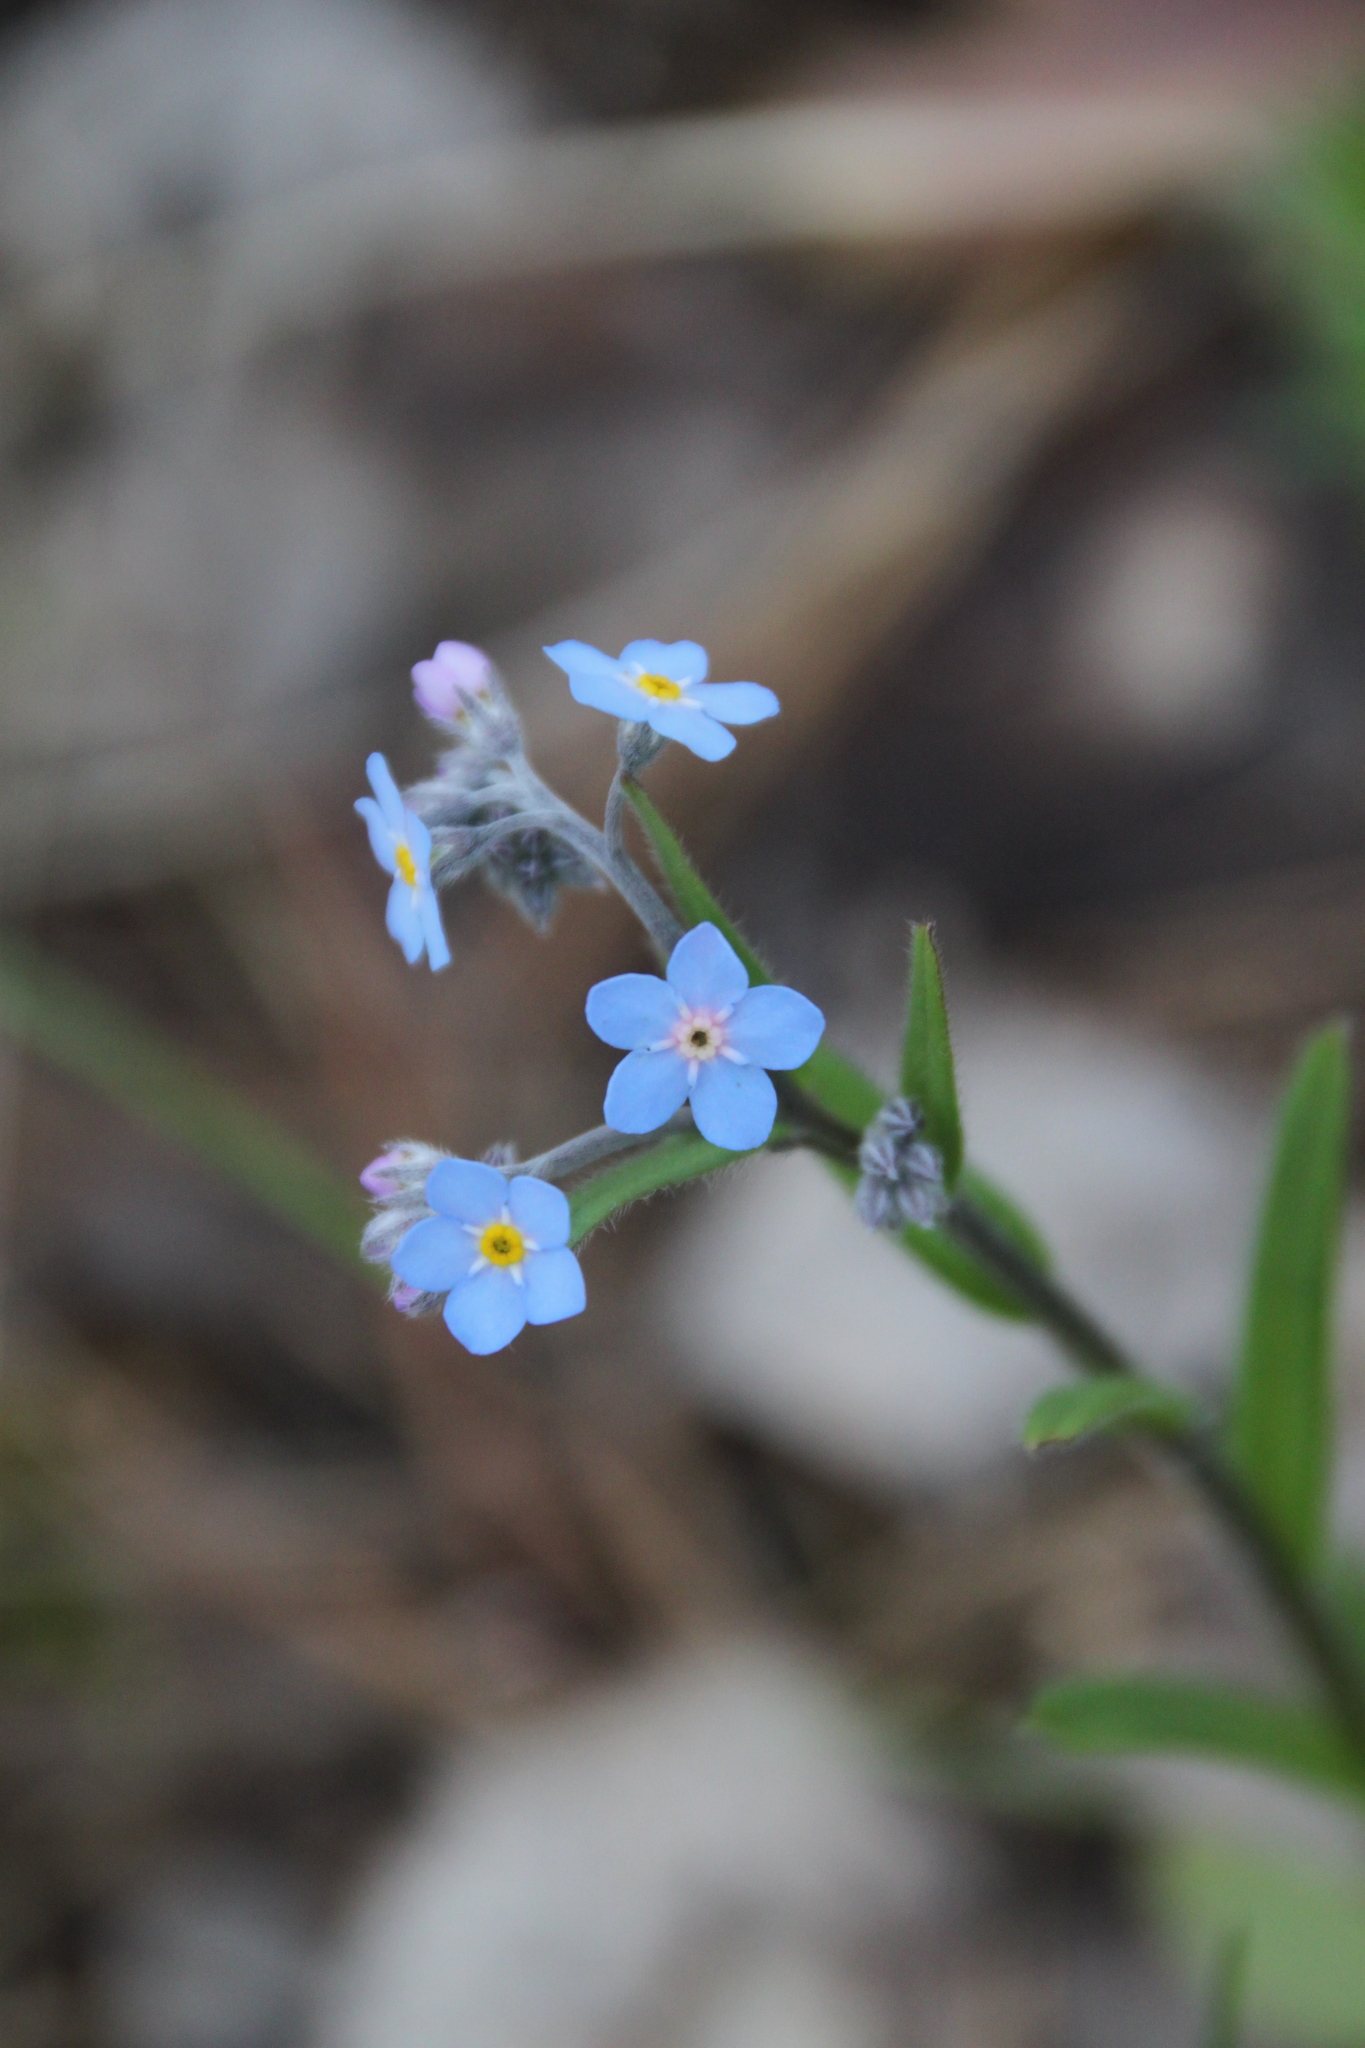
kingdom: Plantae
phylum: Tracheophyta
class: Magnoliopsida
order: Boraginales
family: Boraginaceae
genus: Myosotis
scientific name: Myosotis sylvatica
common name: Wood forget-me-not
